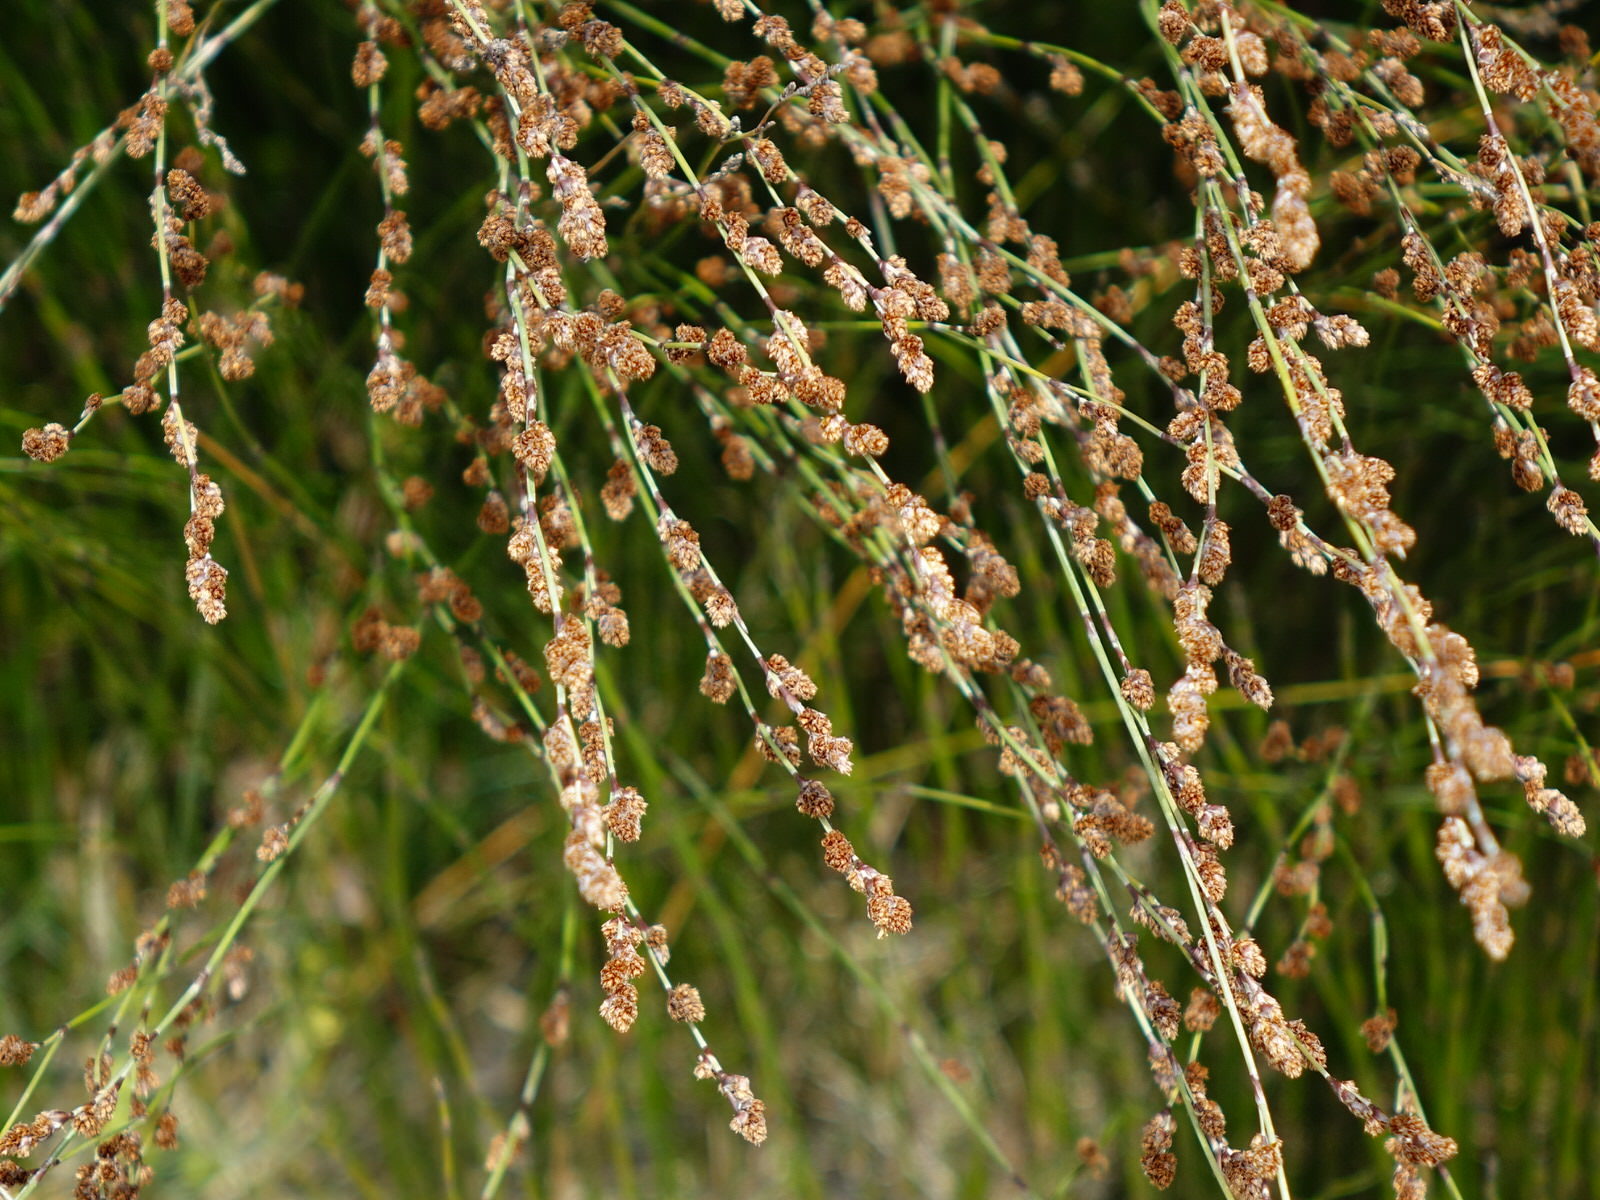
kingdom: Plantae
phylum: Tracheophyta
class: Liliopsida
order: Poales
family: Restionaceae
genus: Apodasmia
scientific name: Apodasmia similis
